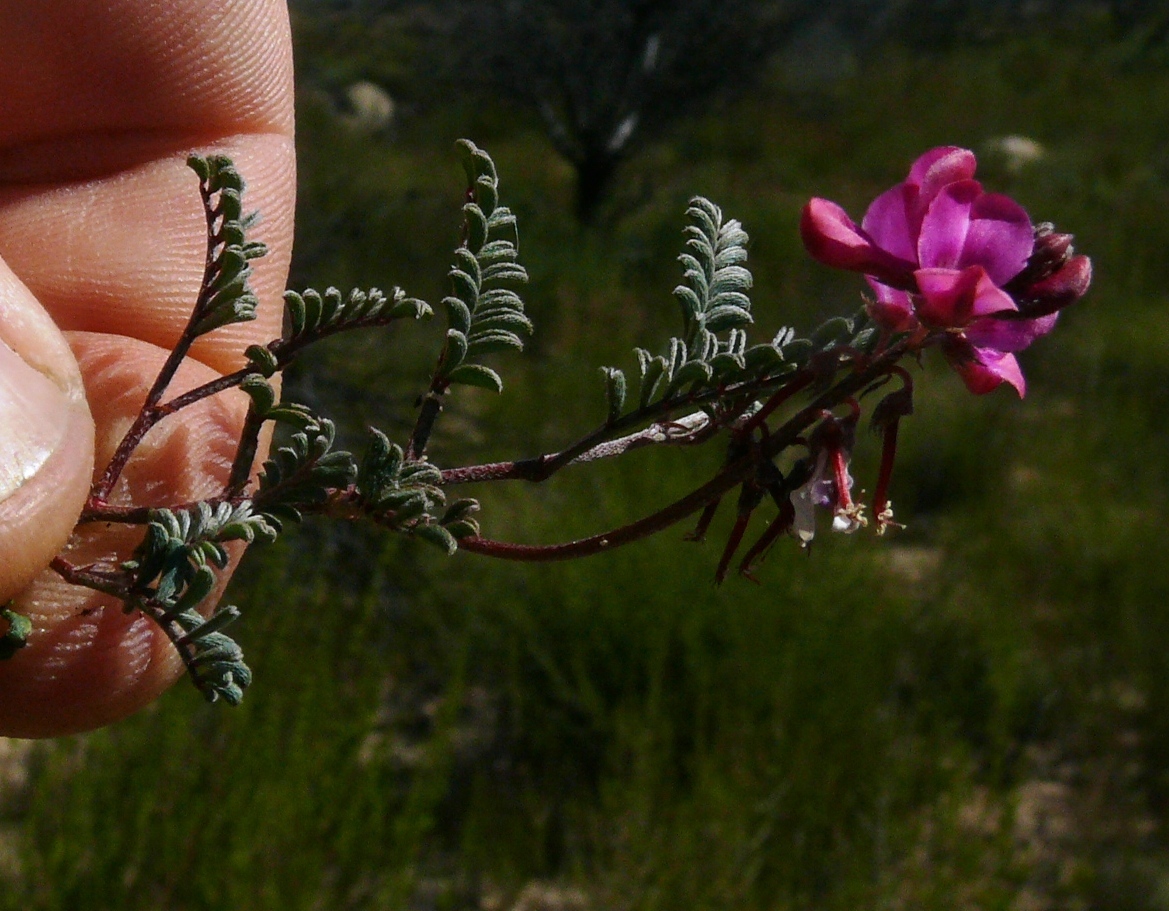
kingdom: Plantae
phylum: Tracheophyta
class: Magnoliopsida
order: Fabales
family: Fabaceae
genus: Indigofera
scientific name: Indigofera
